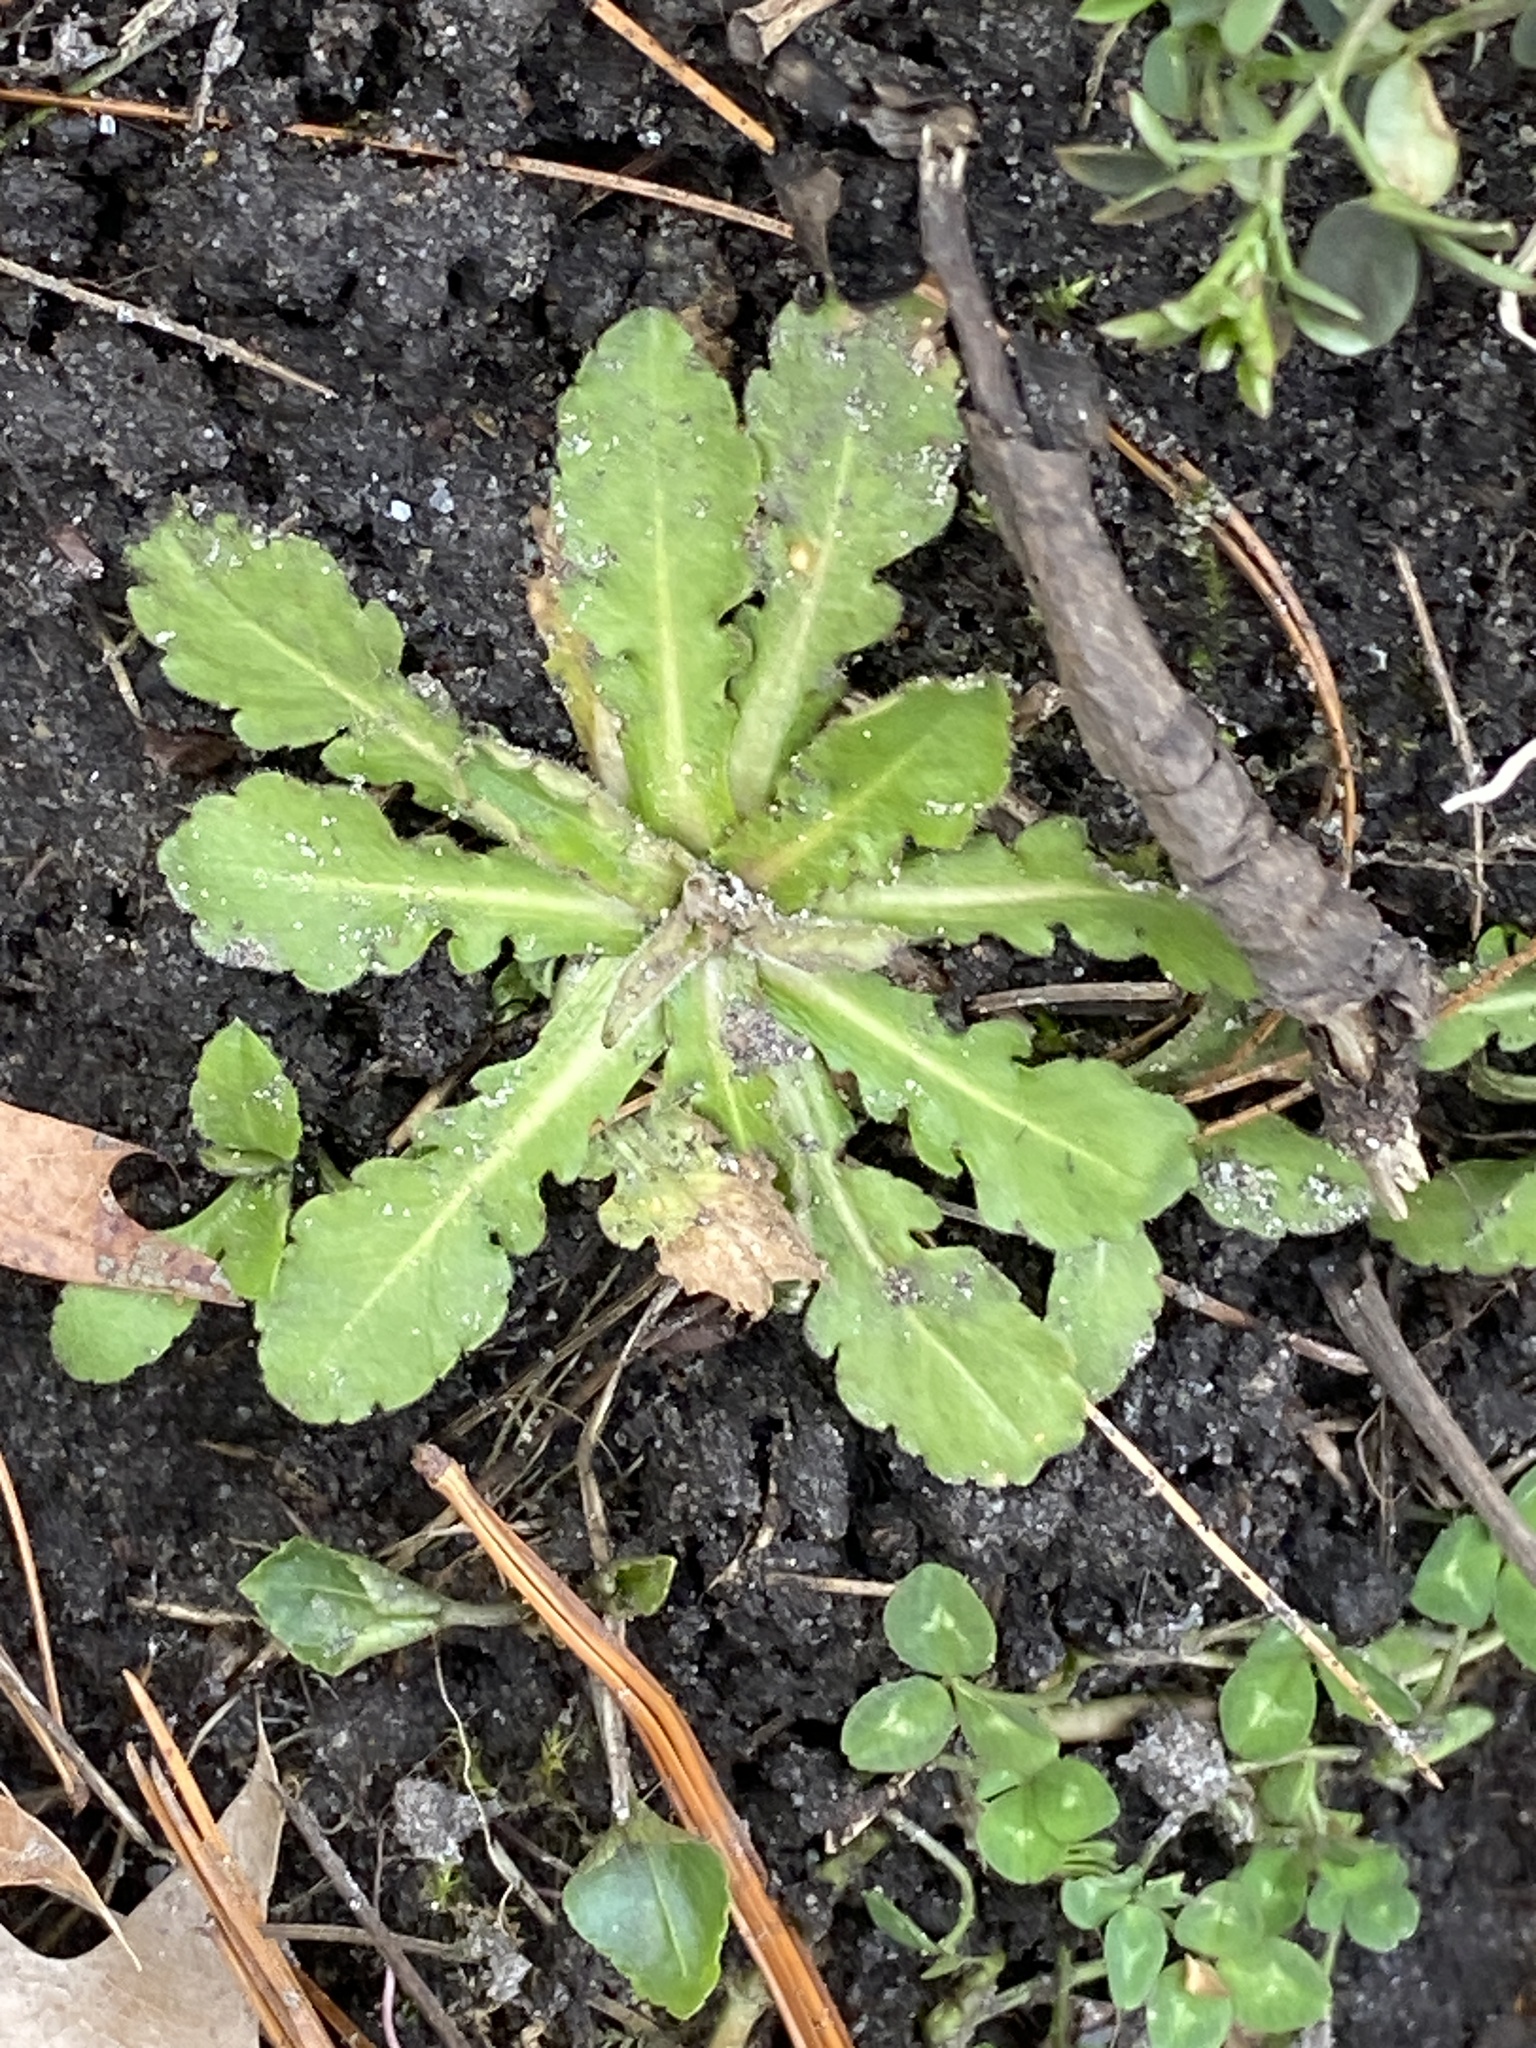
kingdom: Plantae
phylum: Tracheophyta
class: Magnoliopsida
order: Asterales
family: Asteraceae
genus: Hypochaeris
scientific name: Hypochaeris radicata
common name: Flatweed
